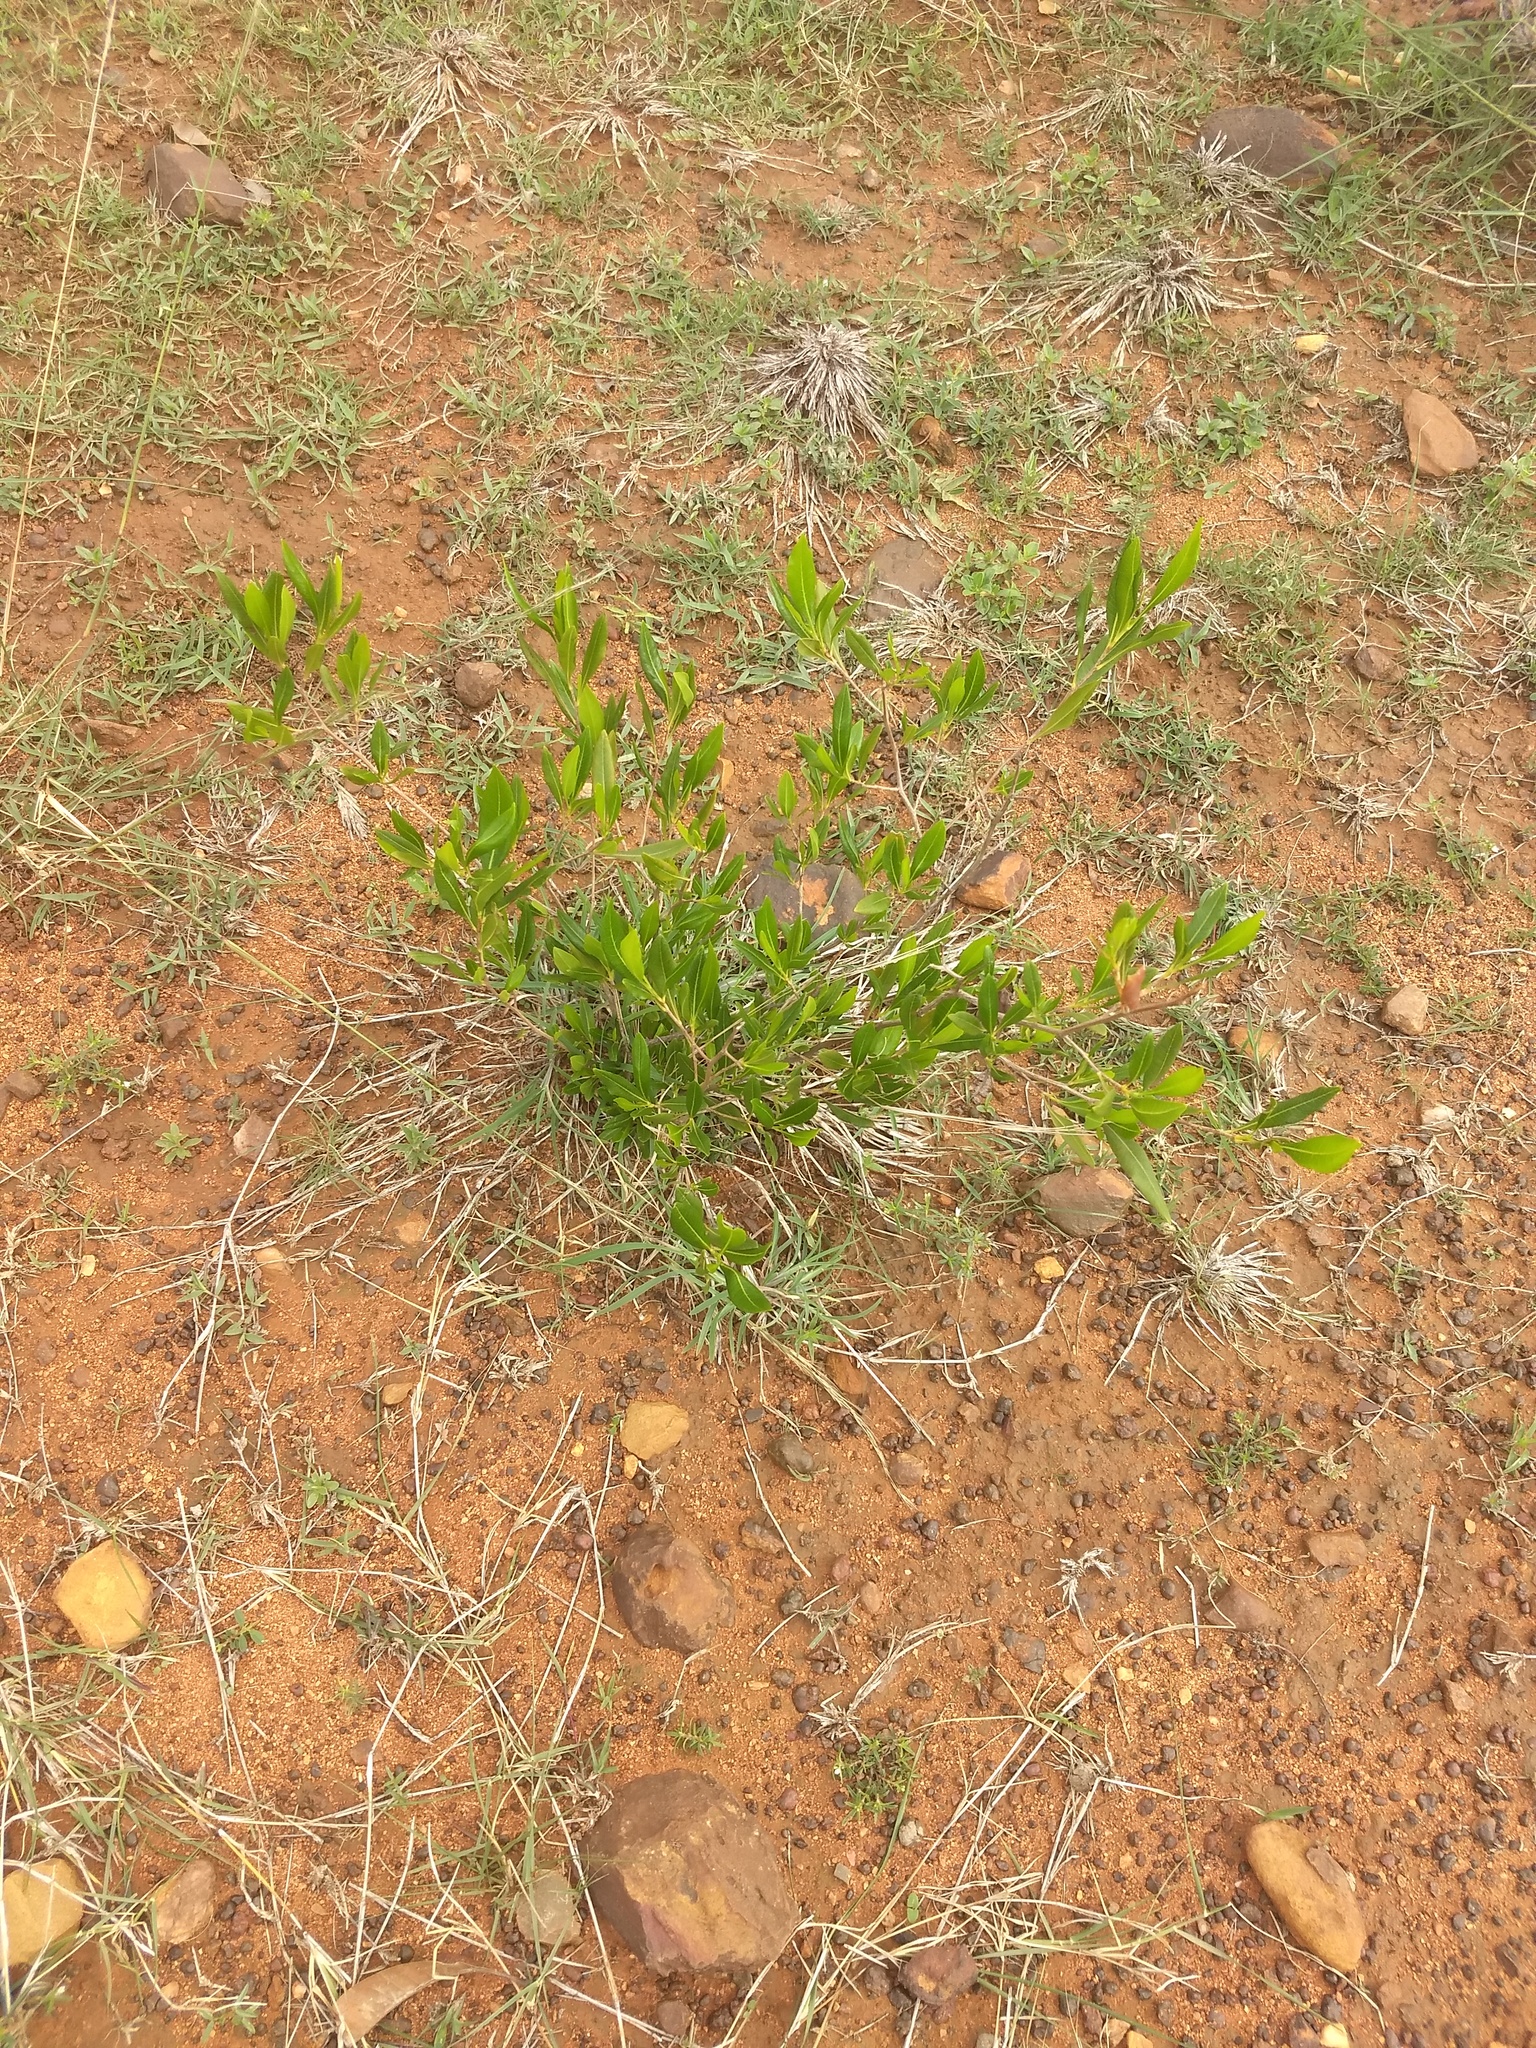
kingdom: Plantae
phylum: Tracheophyta
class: Magnoliopsida
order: Sapindales
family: Sapindaceae
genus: Dodonaea
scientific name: Dodonaea viscosa
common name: Hopbush
